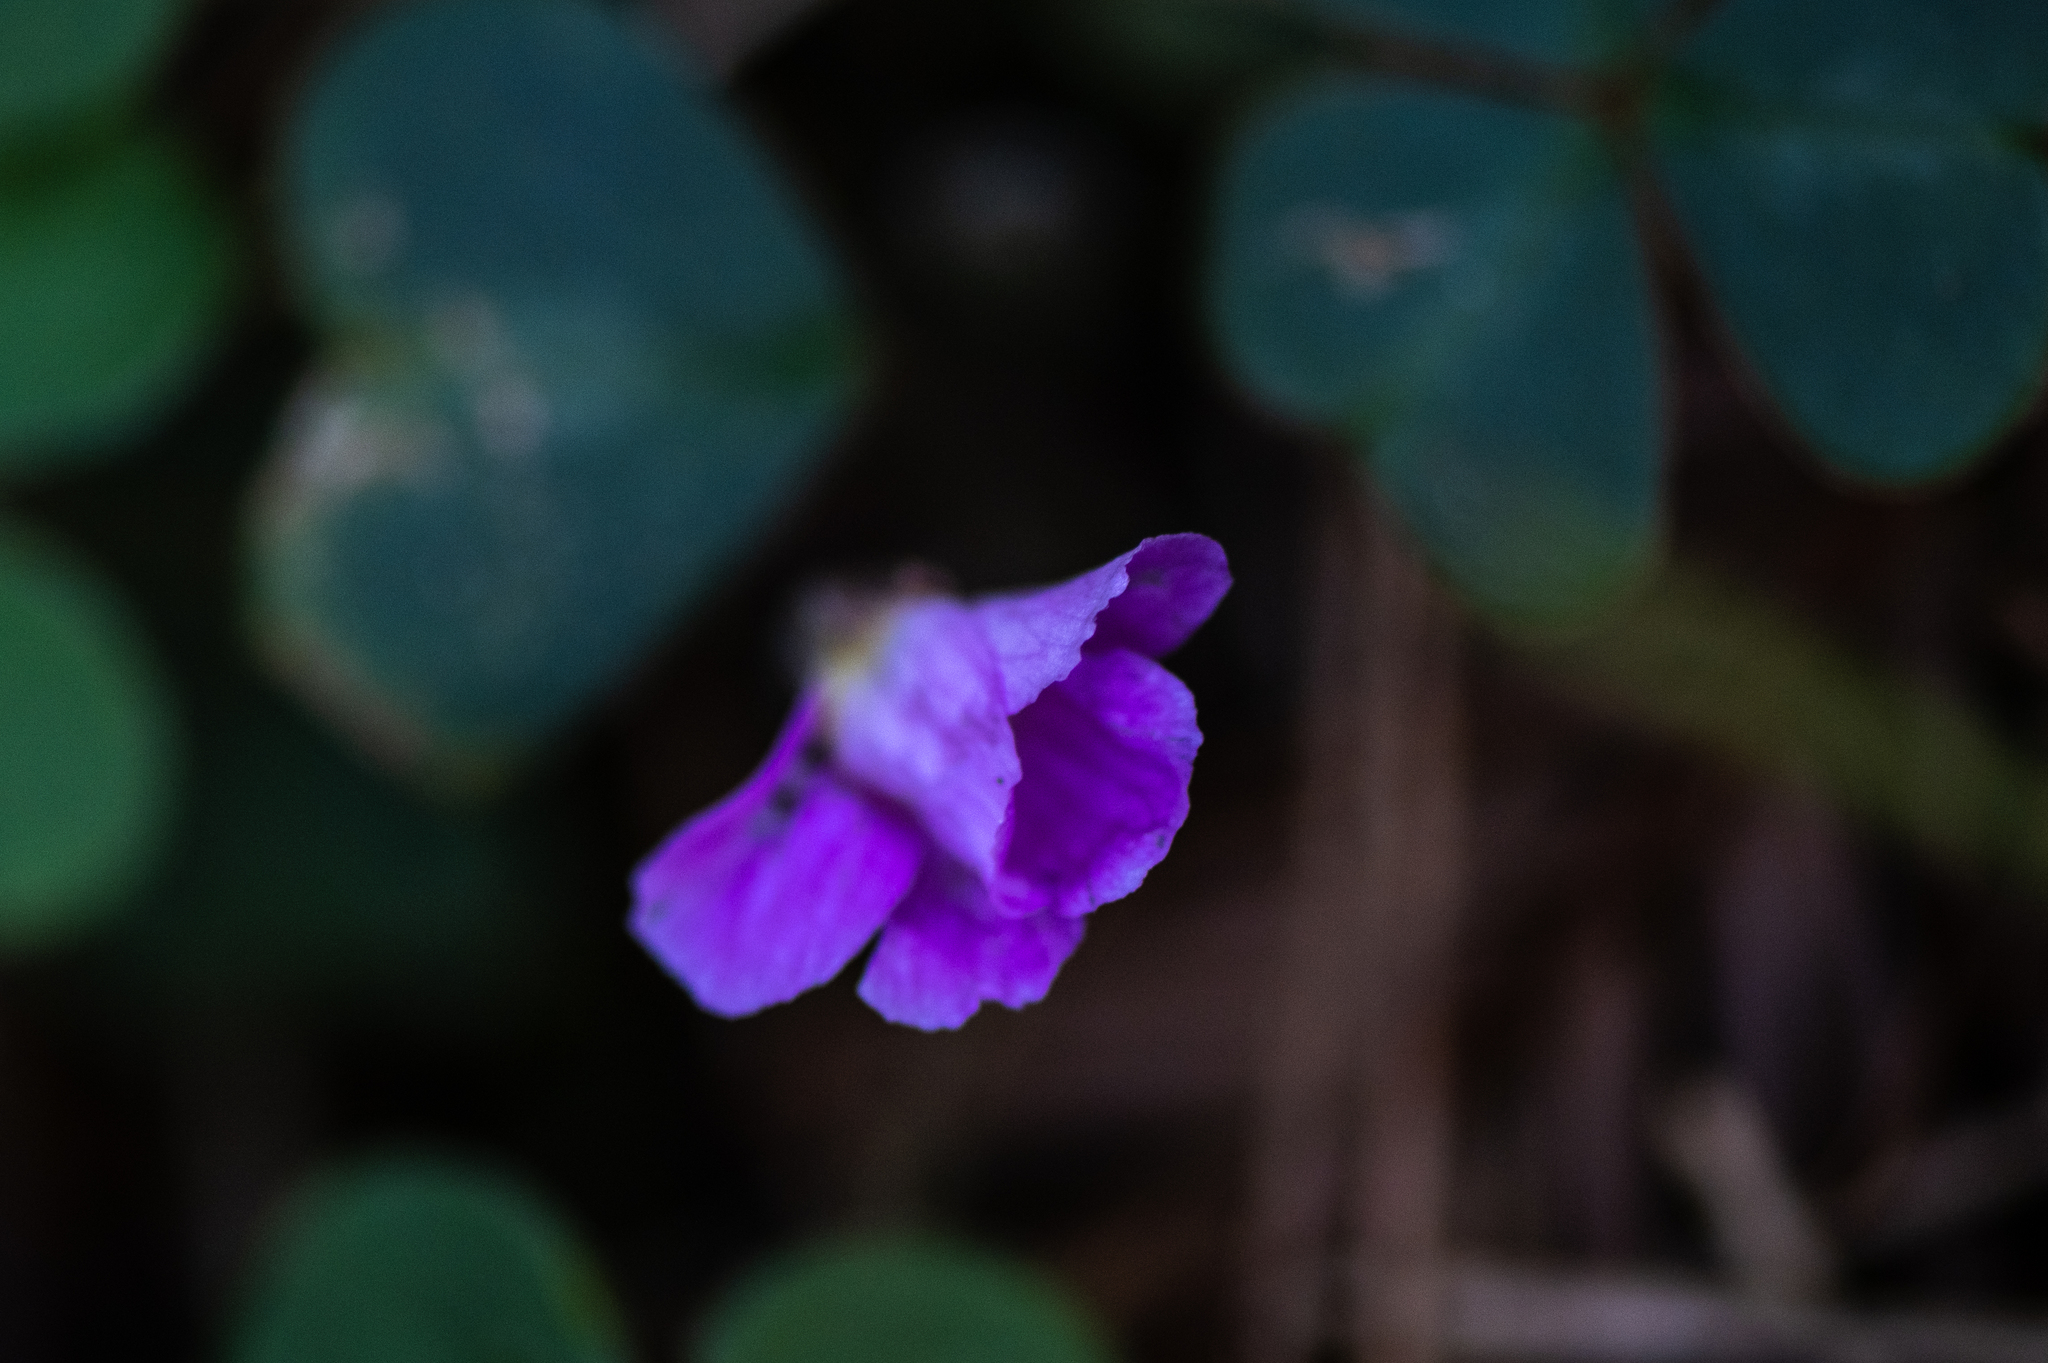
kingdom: Plantae
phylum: Tracheophyta
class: Magnoliopsida
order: Oxalidales
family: Oxalidaceae
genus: Oxalis
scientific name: Oxalis oregana
